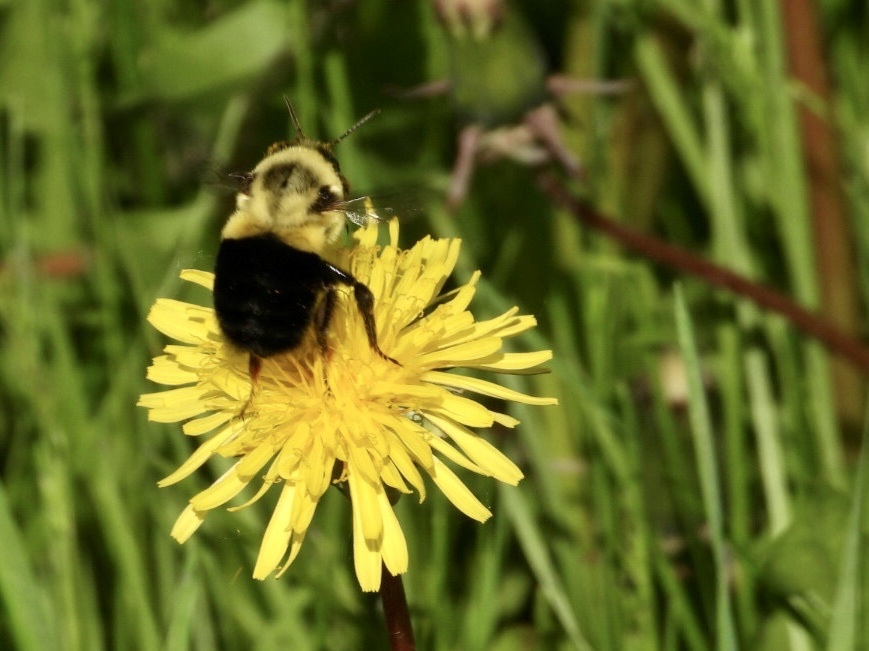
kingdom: Animalia
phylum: Arthropoda
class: Insecta
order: Hymenoptera
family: Apidae
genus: Bombus
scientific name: Bombus impatiens
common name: Common eastern bumble bee
